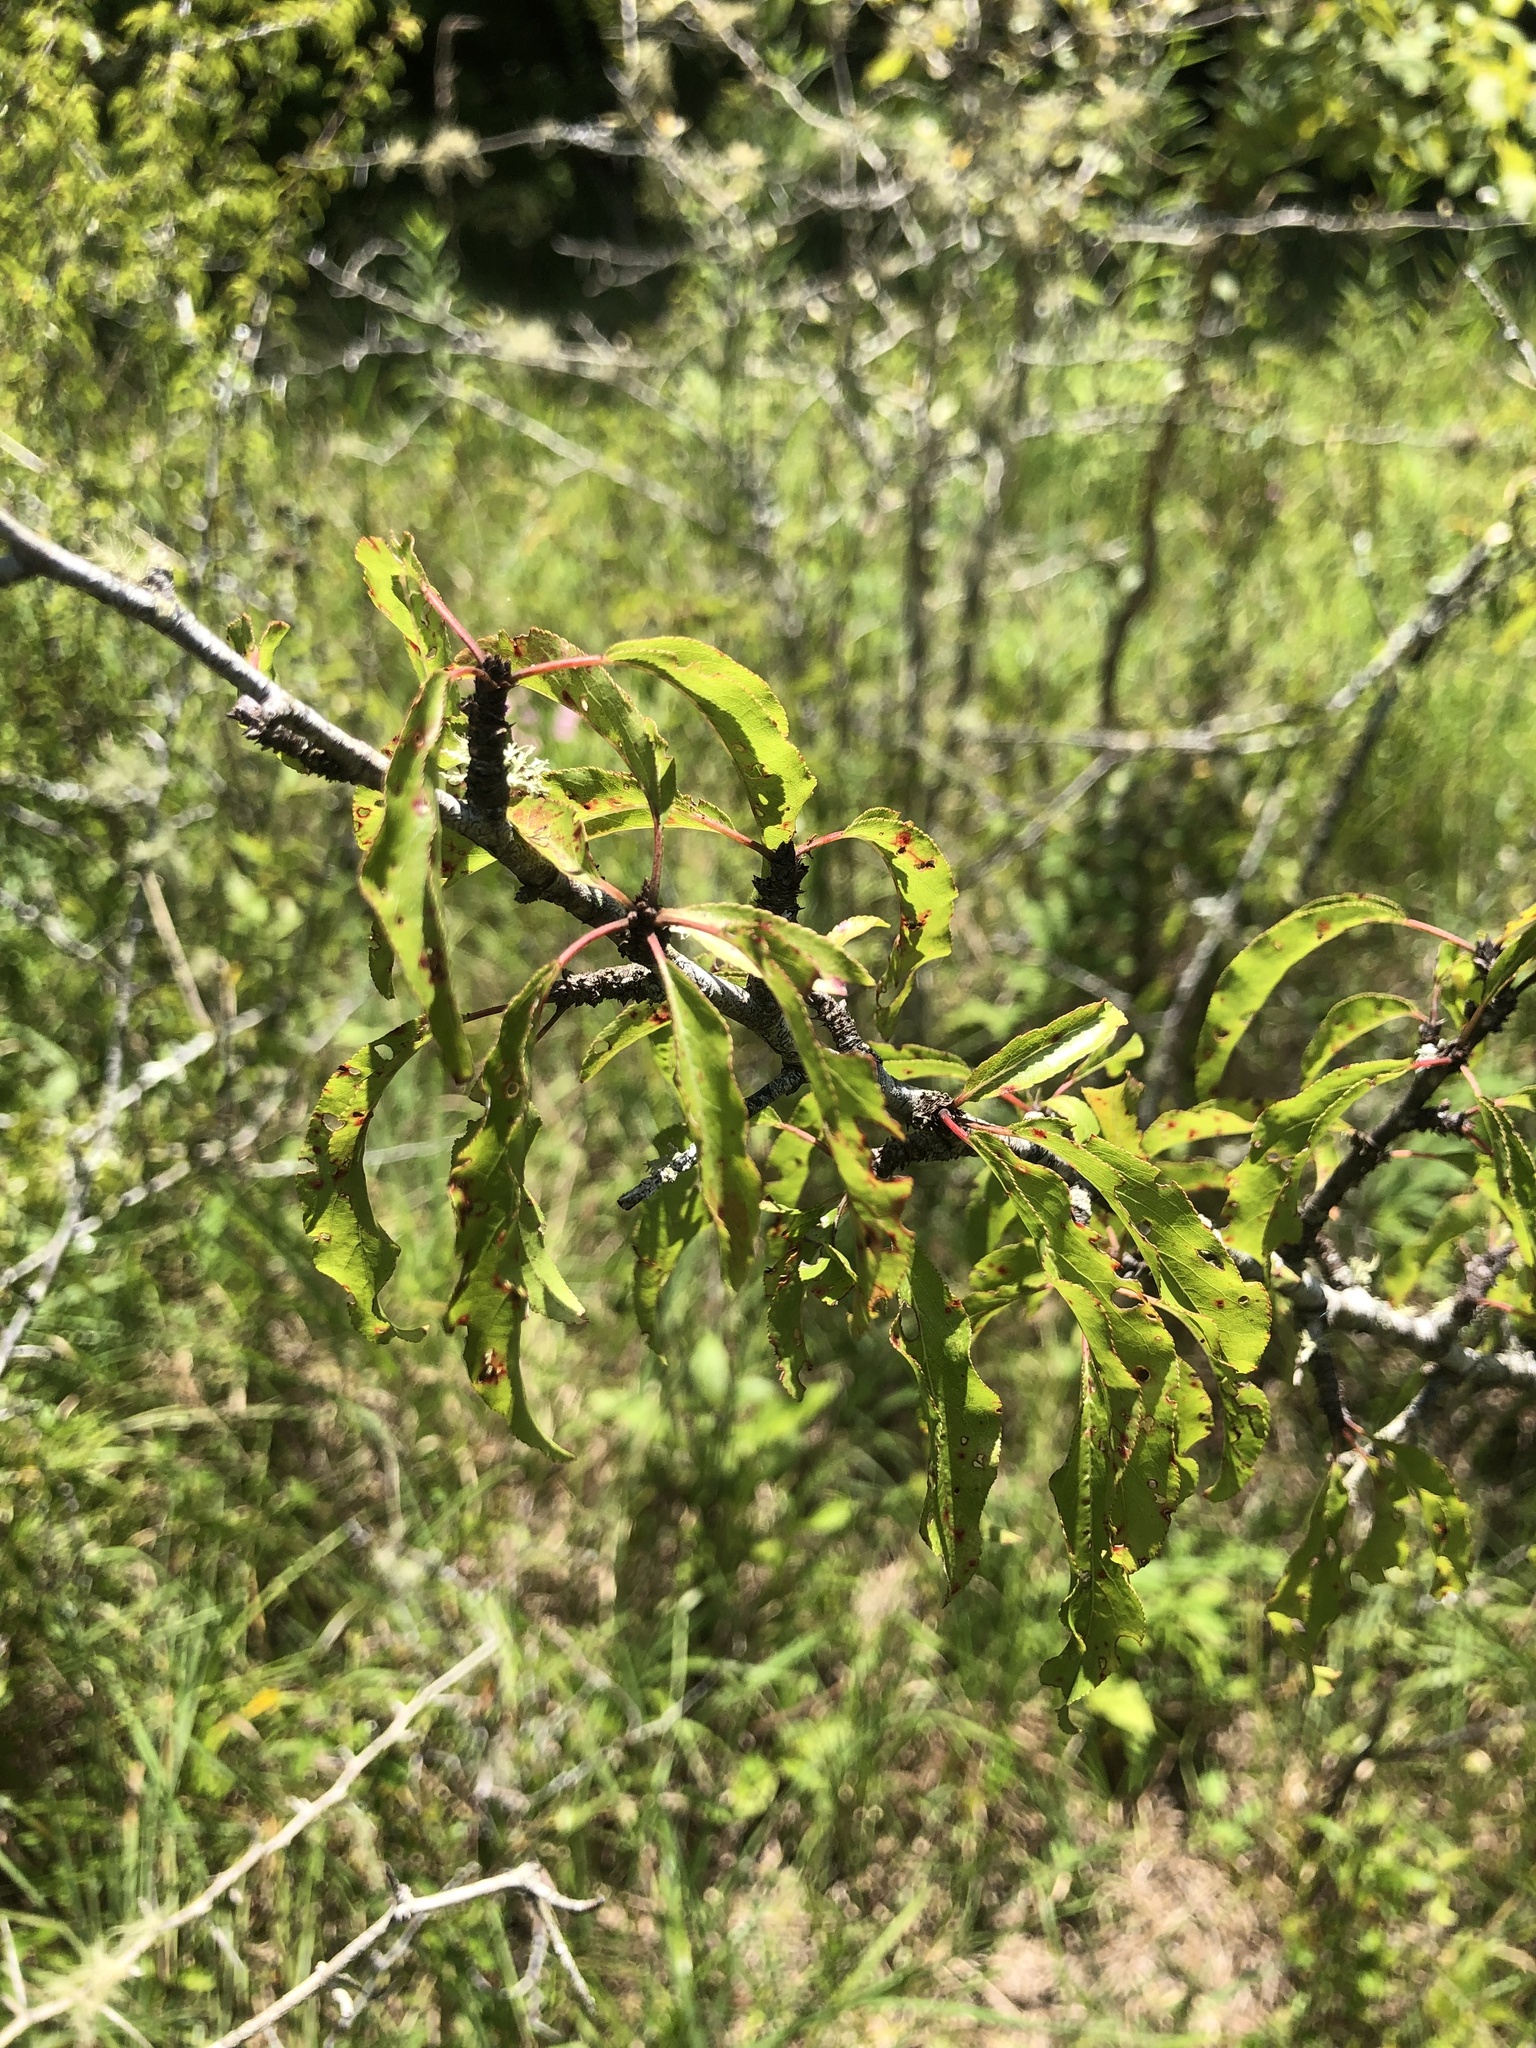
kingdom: Plantae
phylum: Tracheophyta
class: Magnoliopsida
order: Rosales
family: Rosaceae
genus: Prunus
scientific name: Prunus angustifolia
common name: Cherokee plum
